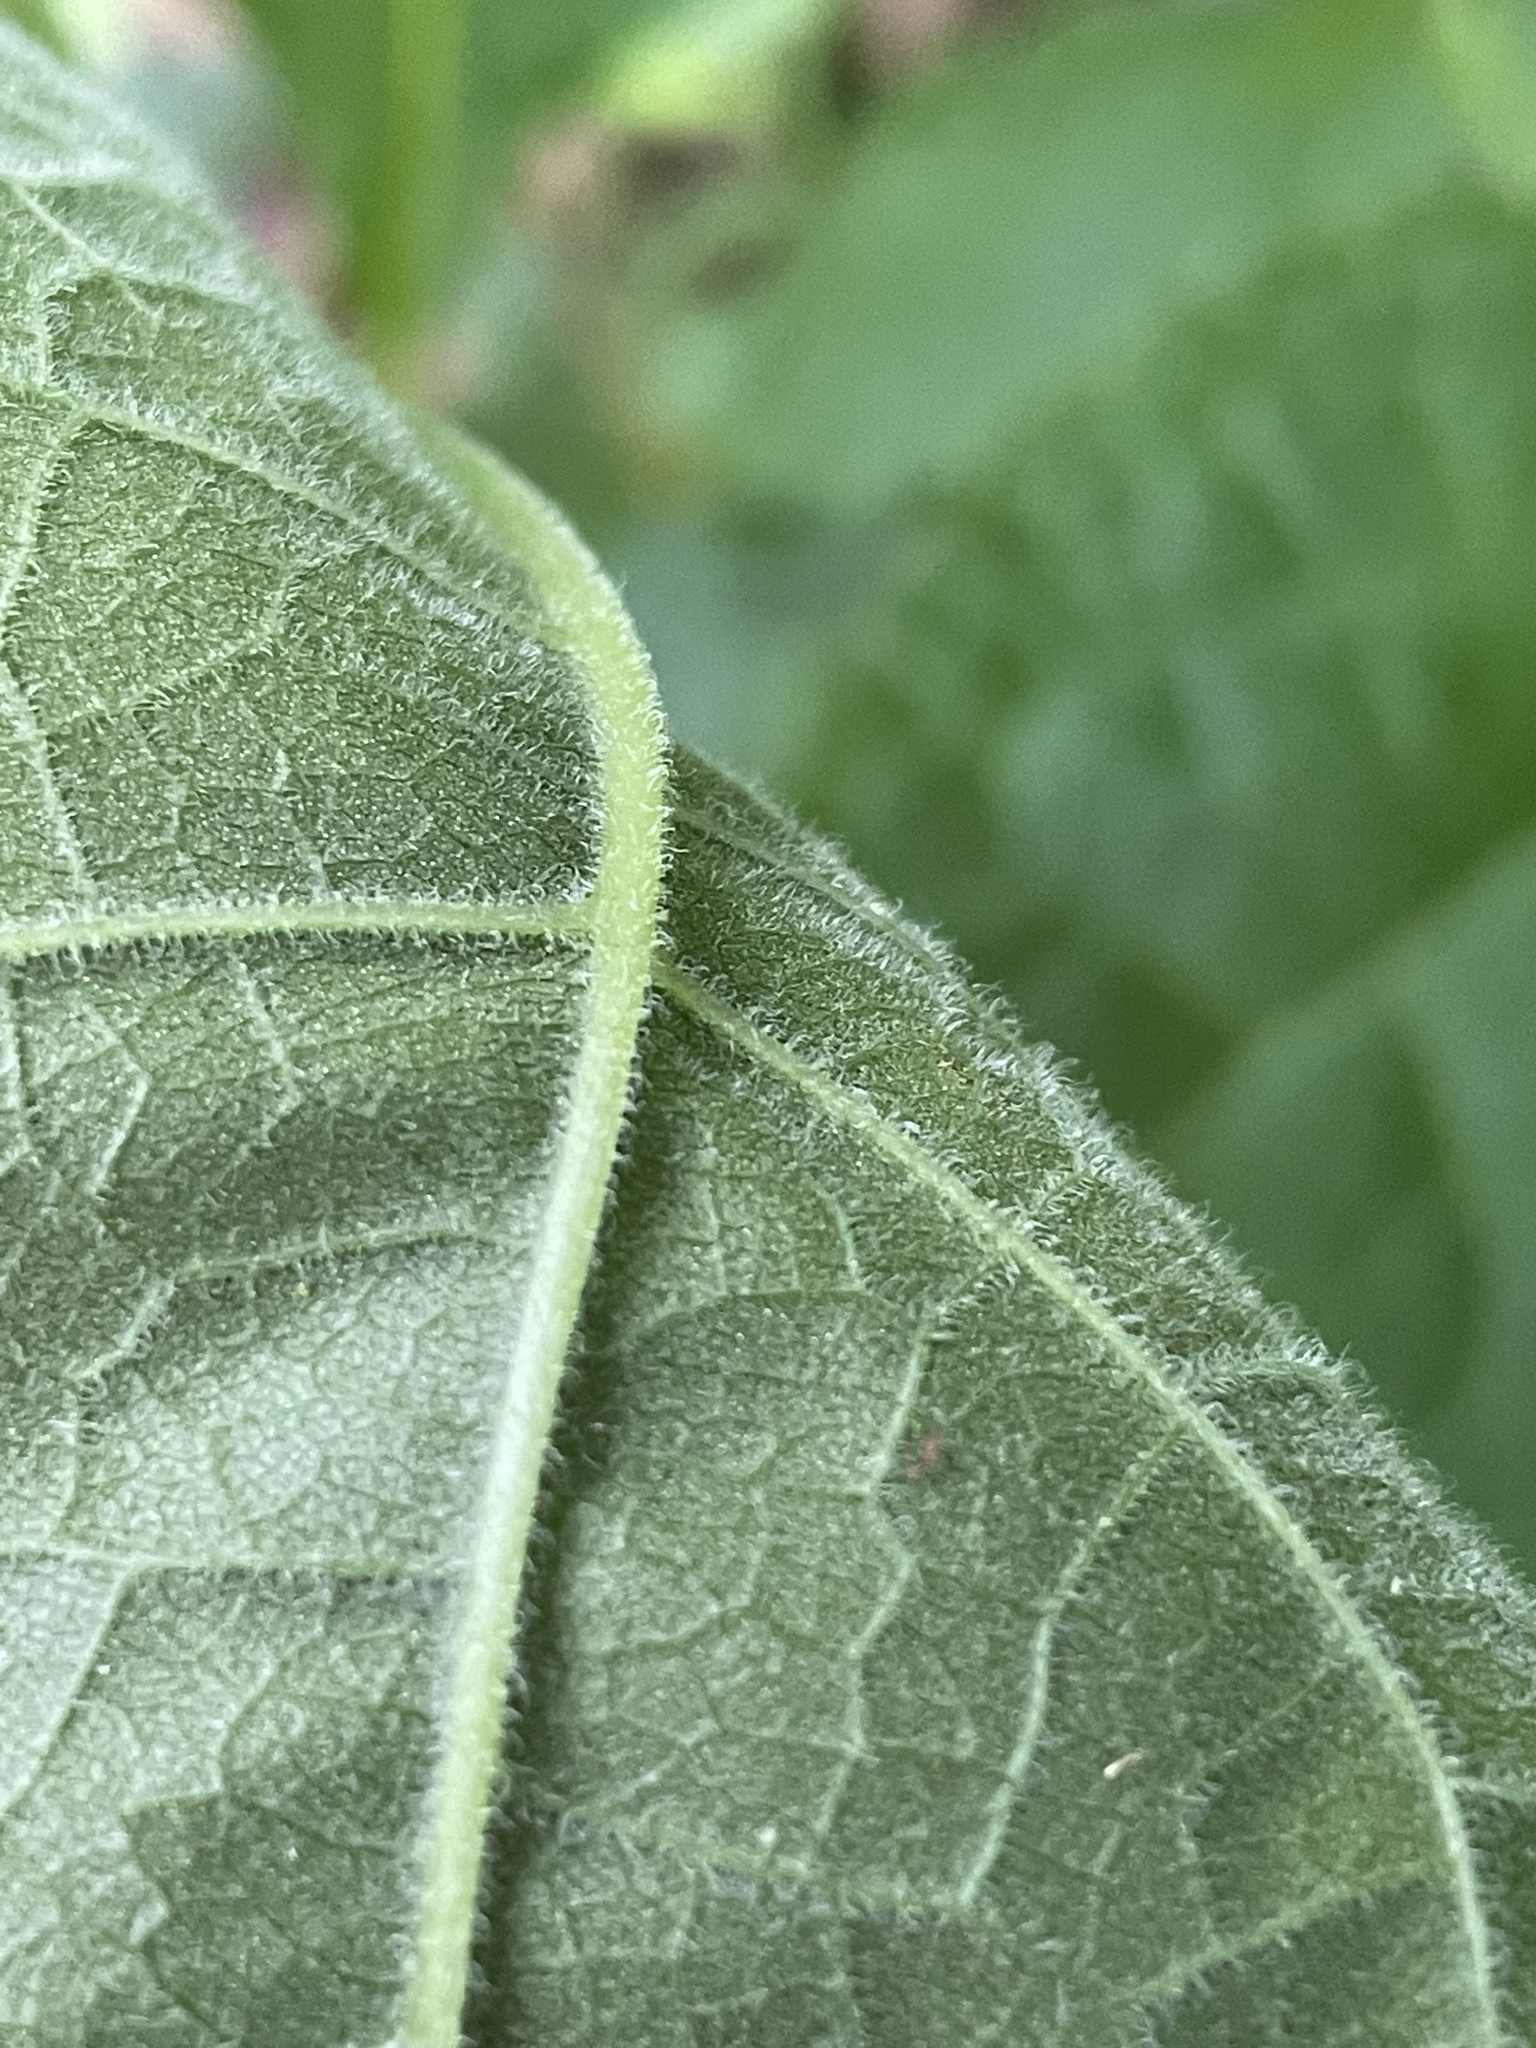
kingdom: Plantae
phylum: Tracheophyta
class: Magnoliopsida
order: Asterales
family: Asteraceae
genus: Eutrochium
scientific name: Eutrochium purpureum
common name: Gravelroot
